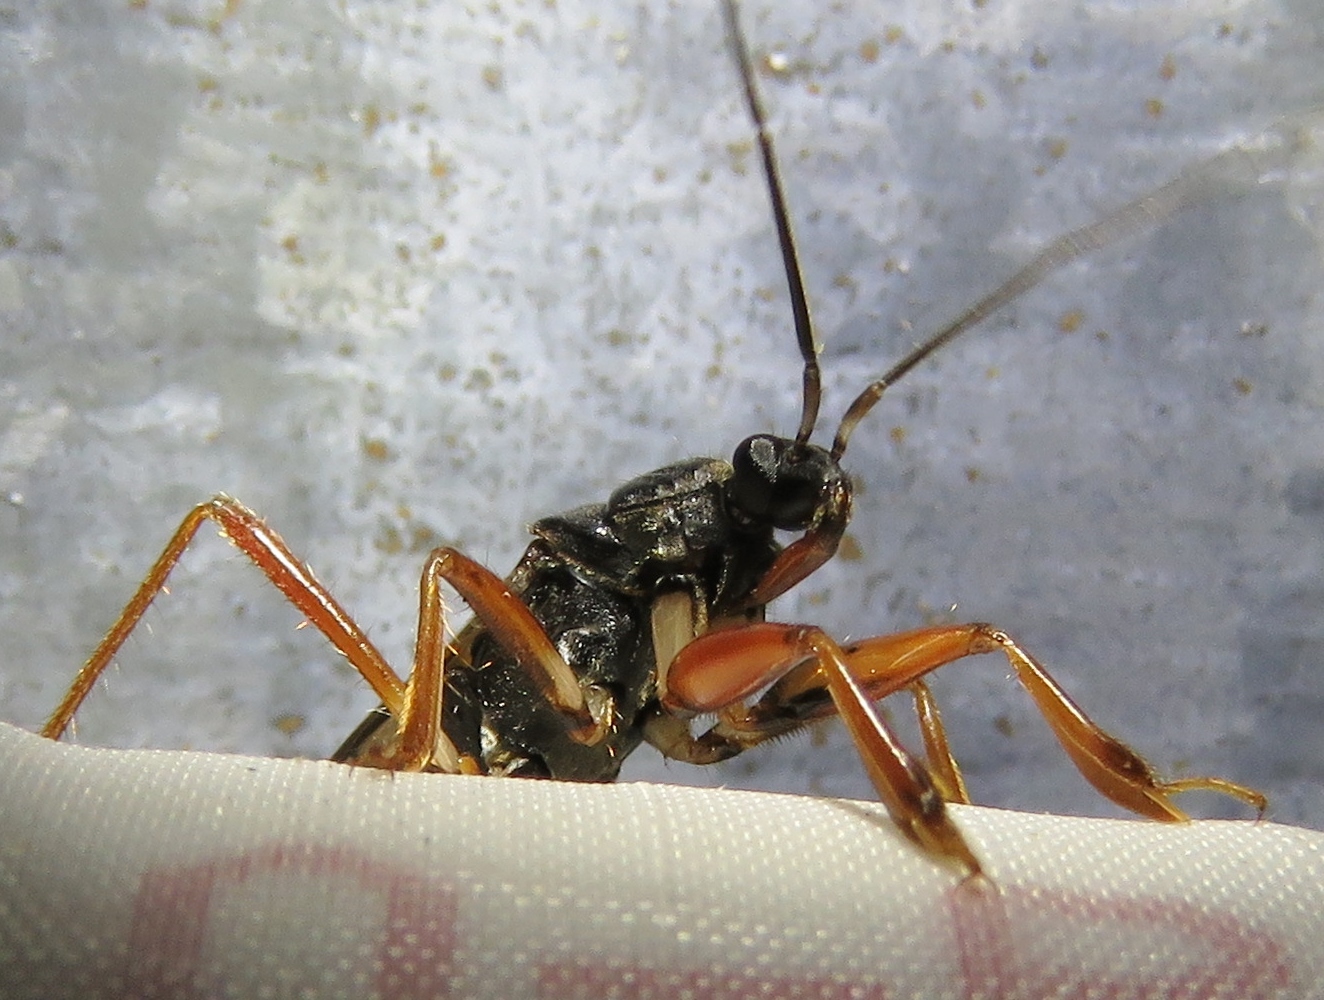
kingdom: Animalia
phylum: Arthropoda
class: Insecta
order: Hemiptera
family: Reduviidae
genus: Rasahus
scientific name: Rasahus hamatus
